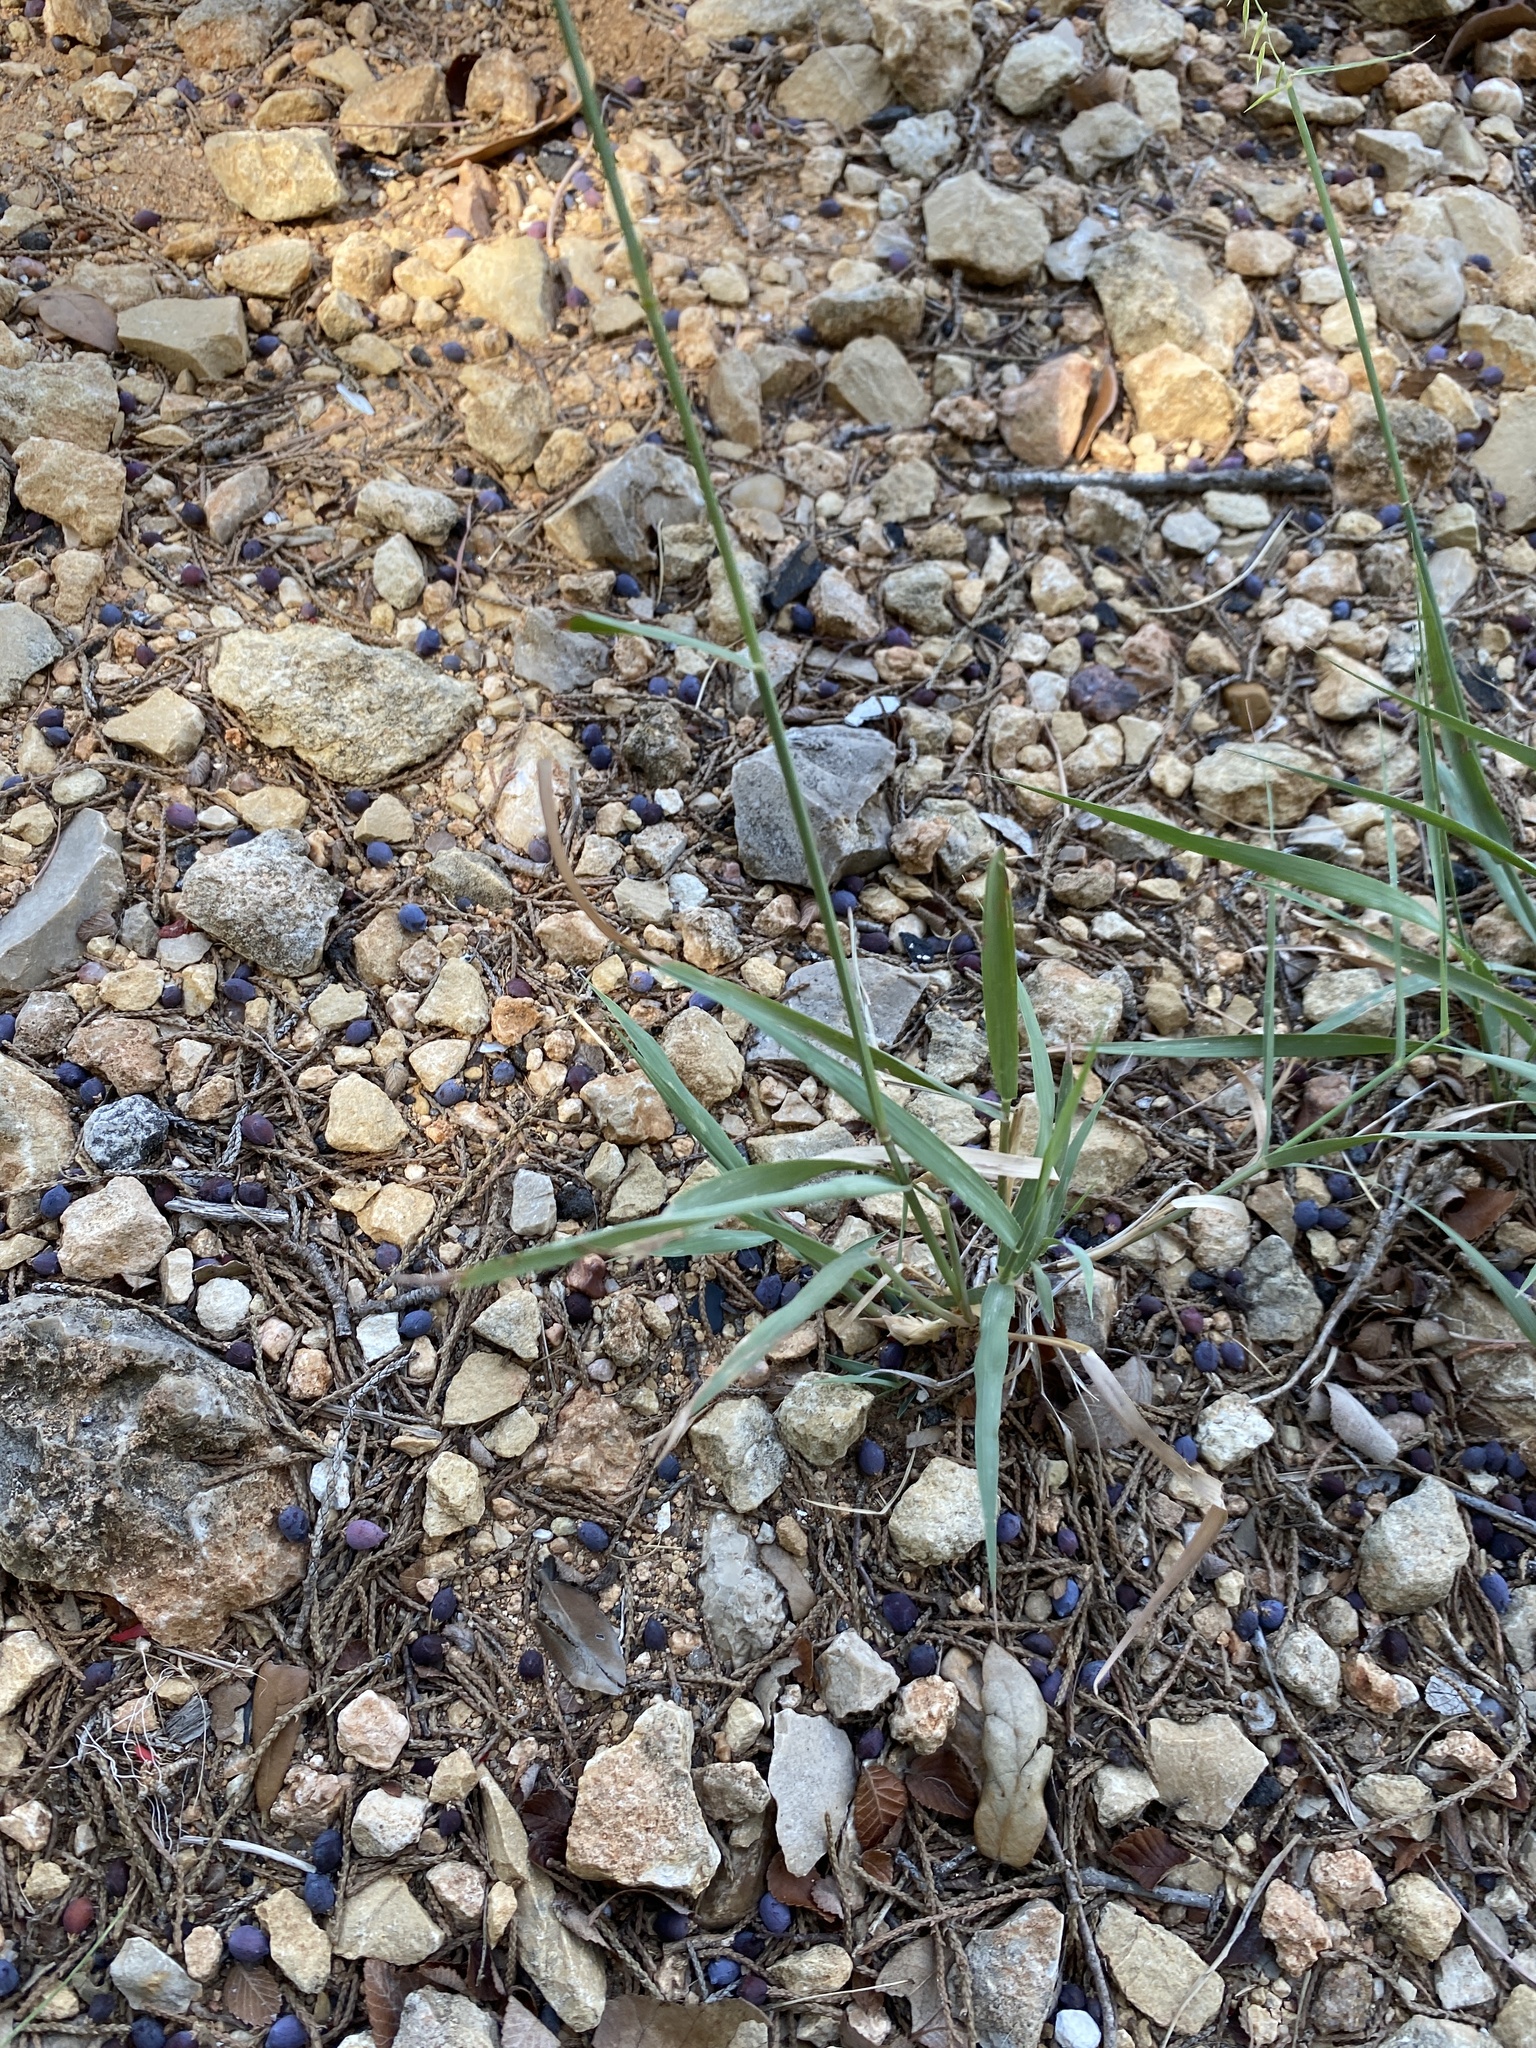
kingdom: Plantae
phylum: Tracheophyta
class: Liliopsida
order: Poales
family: Poaceae
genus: Bouteloua
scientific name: Bouteloua curtipendula
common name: Side-oats grama
